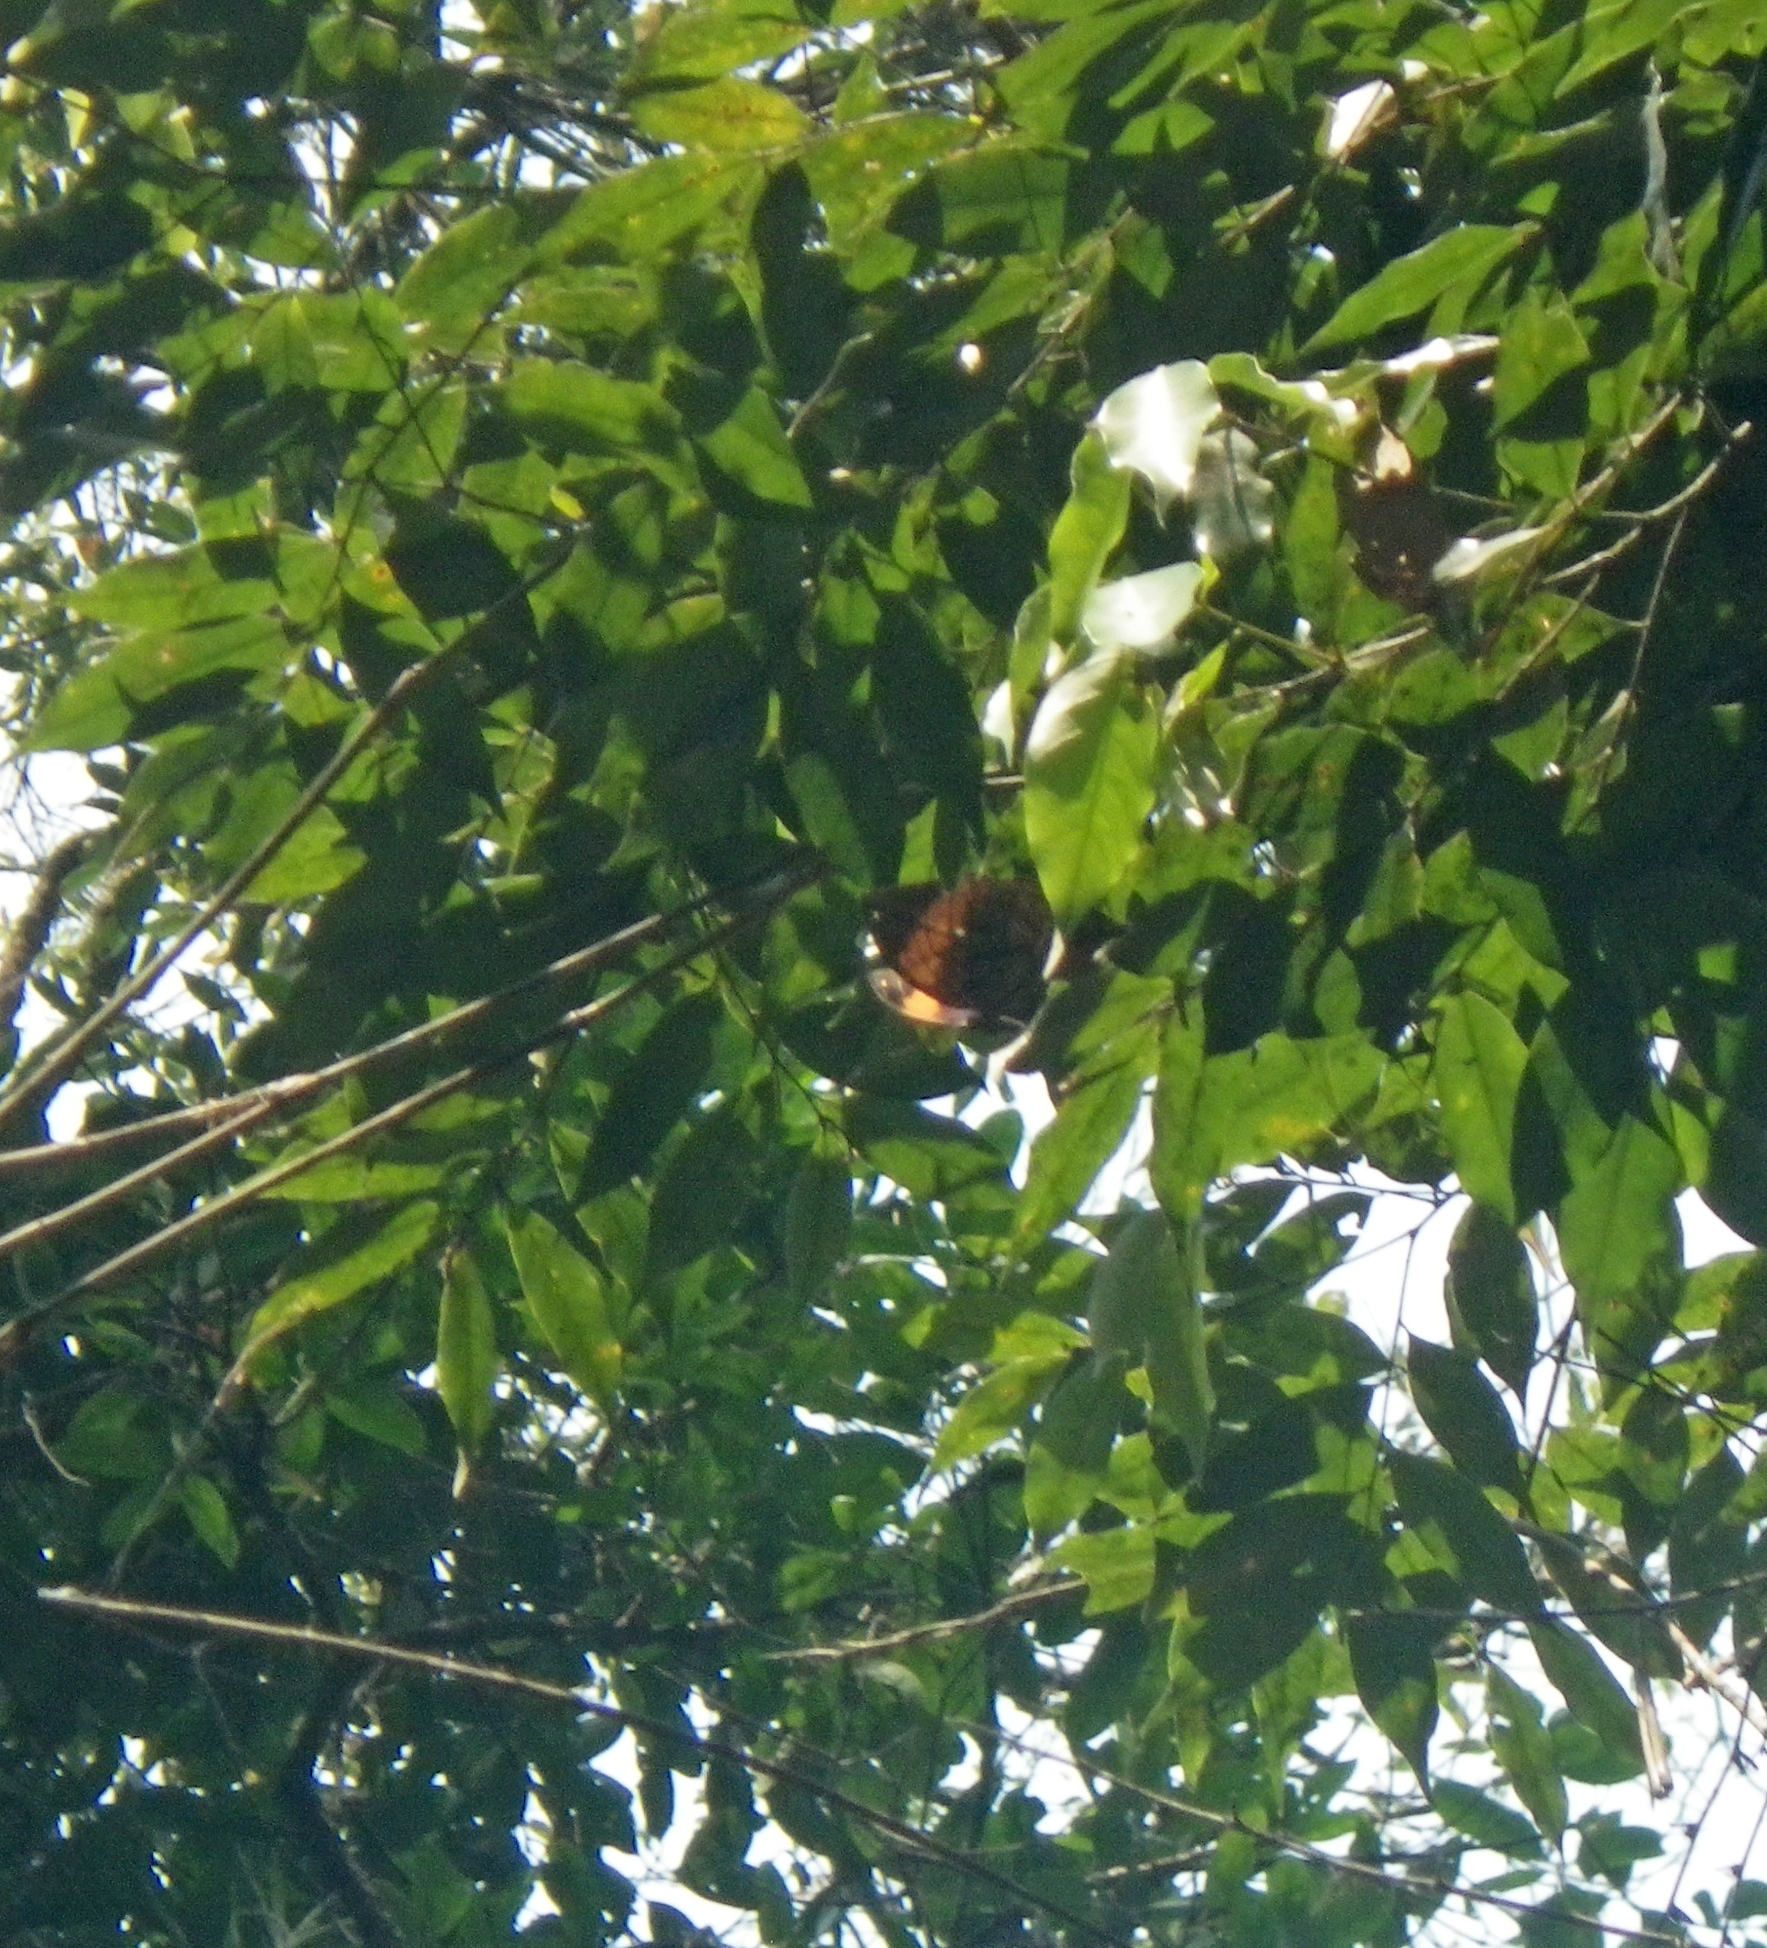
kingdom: Animalia
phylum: Arthropoda
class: Insecta
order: Lepidoptera
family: Nymphalidae
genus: Kallima
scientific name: Kallima inachus
